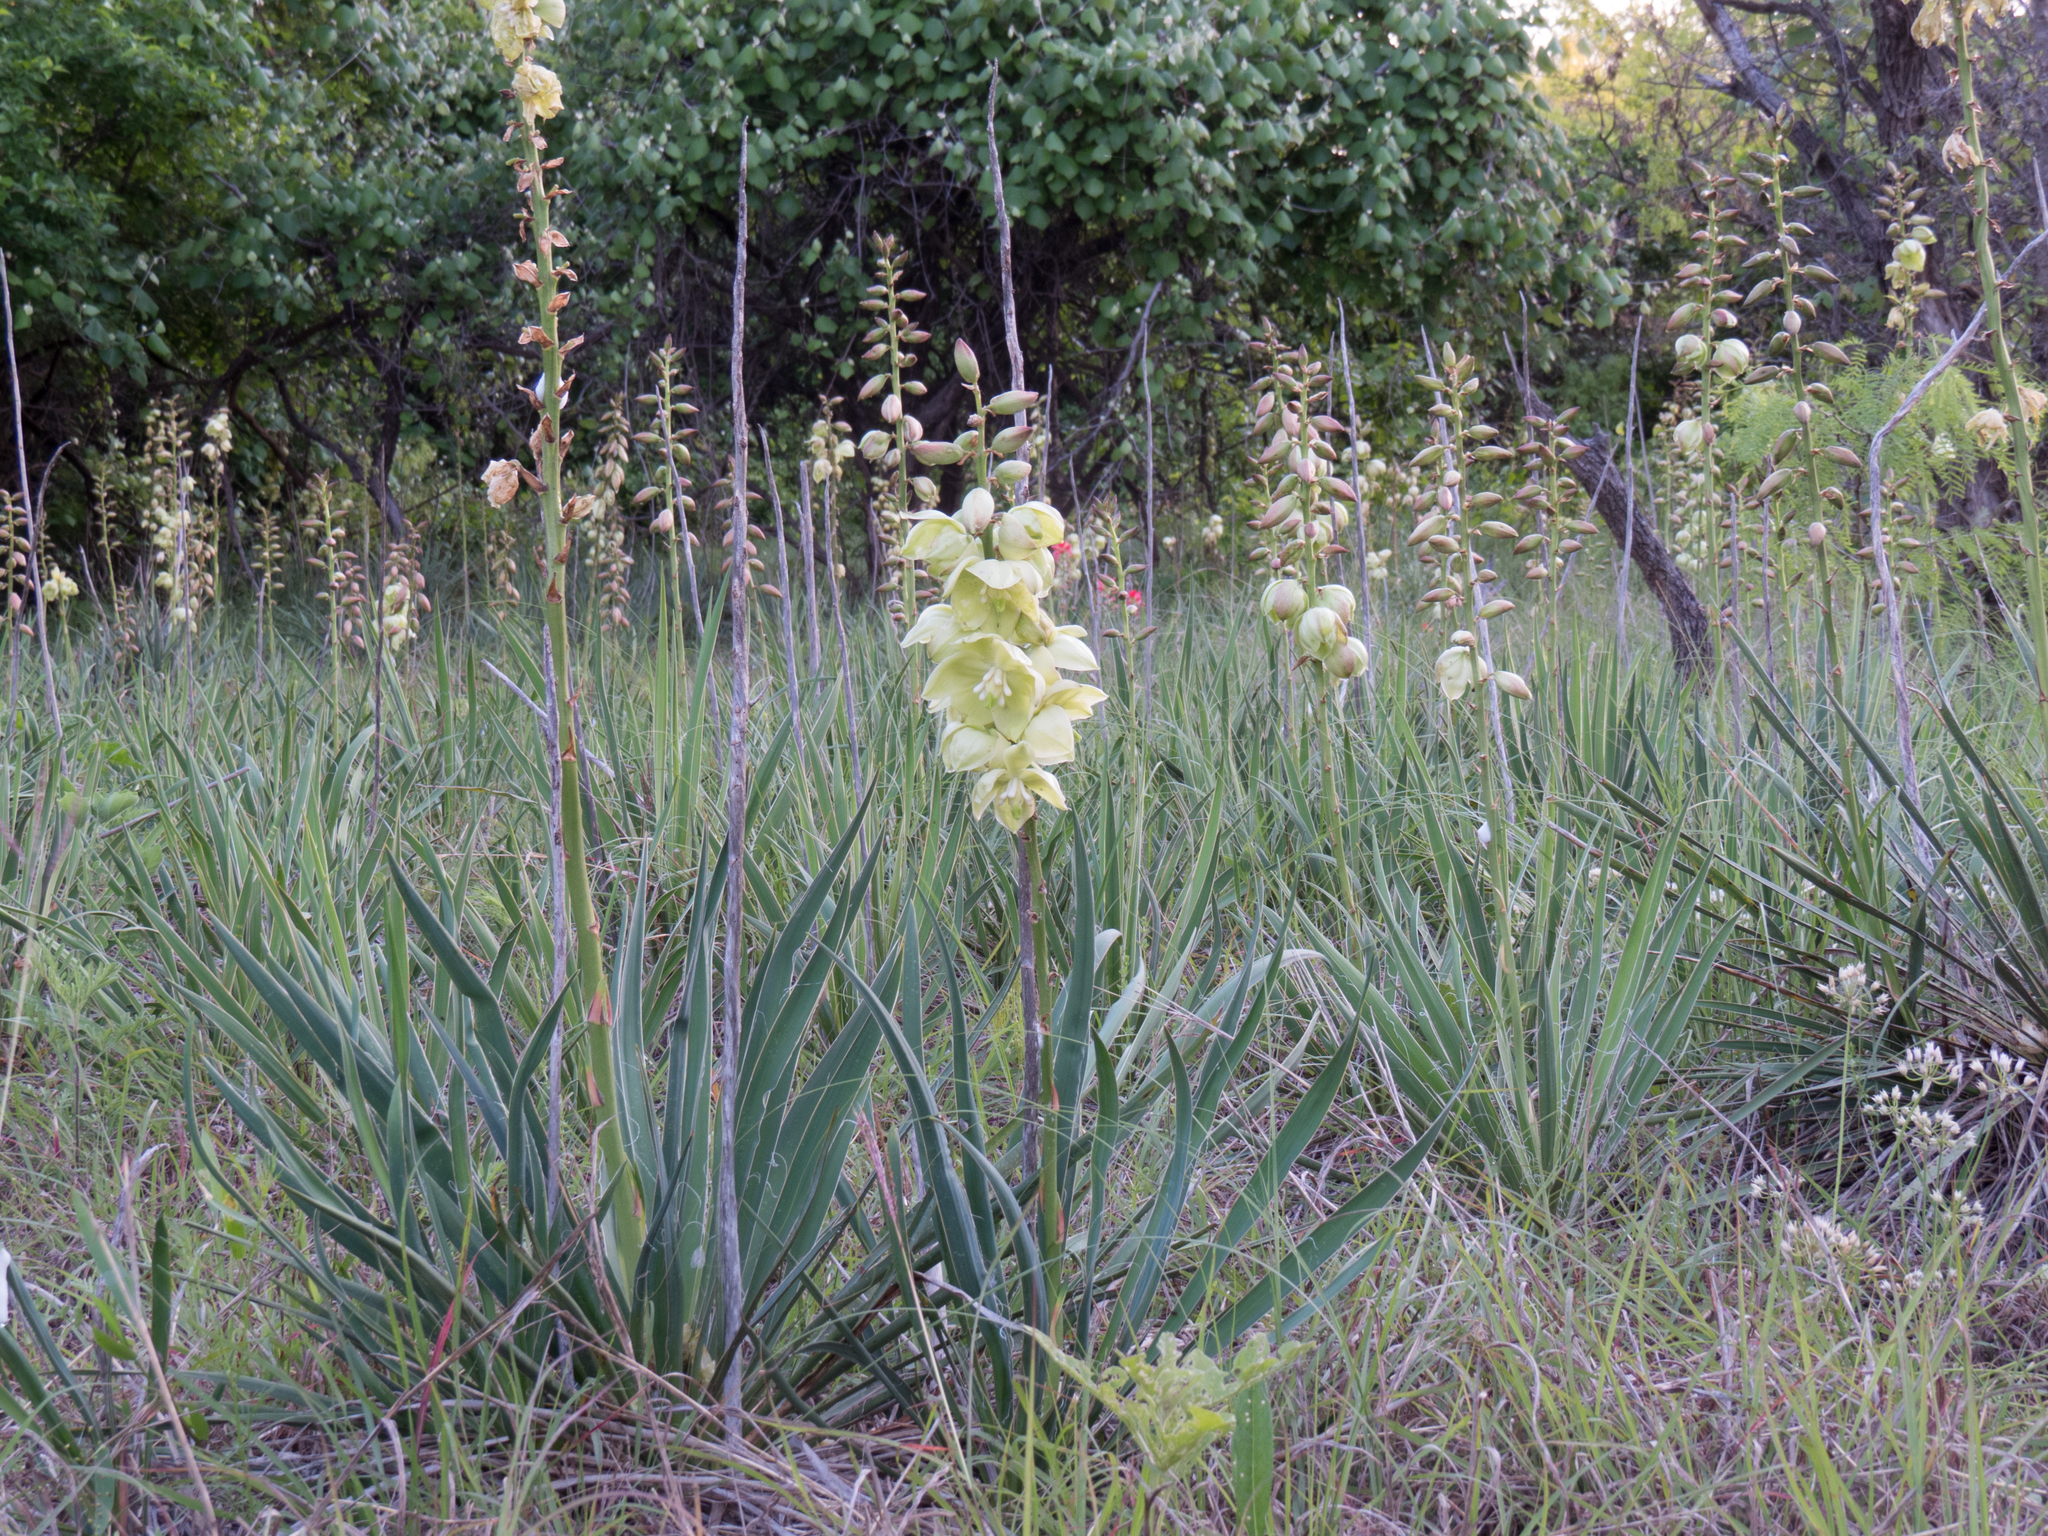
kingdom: Plantae
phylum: Tracheophyta
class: Liliopsida
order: Asparagales
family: Asparagaceae
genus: Yucca
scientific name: Yucca arkansana
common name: Arkansas yucca
